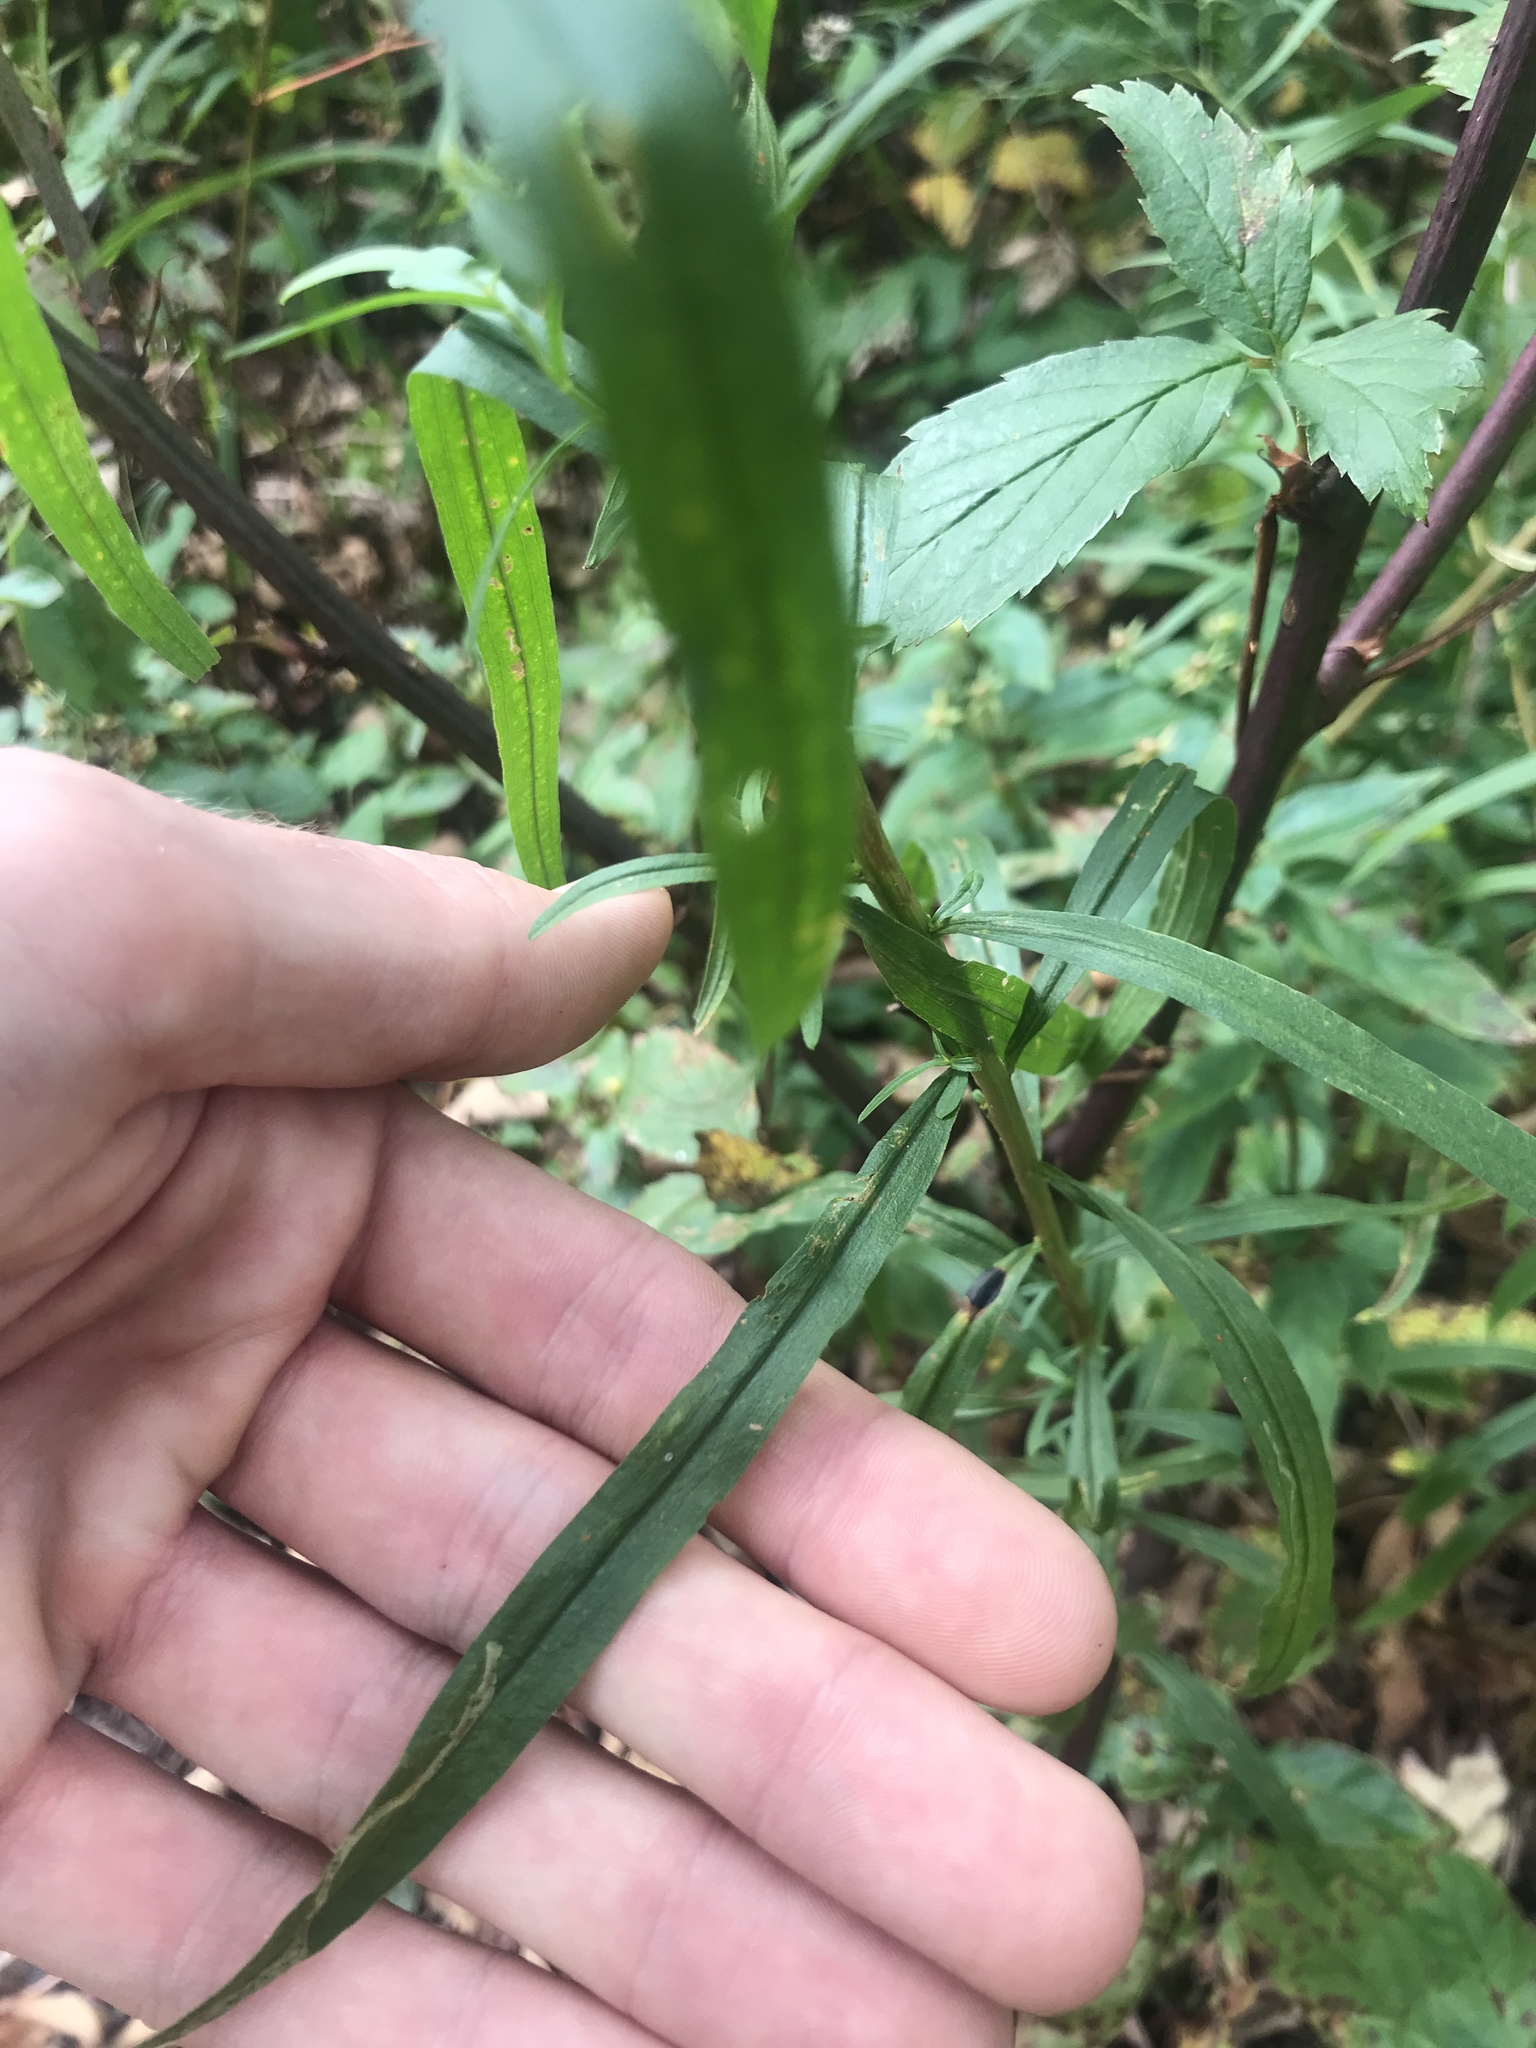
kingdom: Plantae
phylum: Tracheophyta
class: Magnoliopsida
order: Asterales
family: Asteraceae
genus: Euthamia
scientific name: Euthamia graminifolia
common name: Common goldentop
